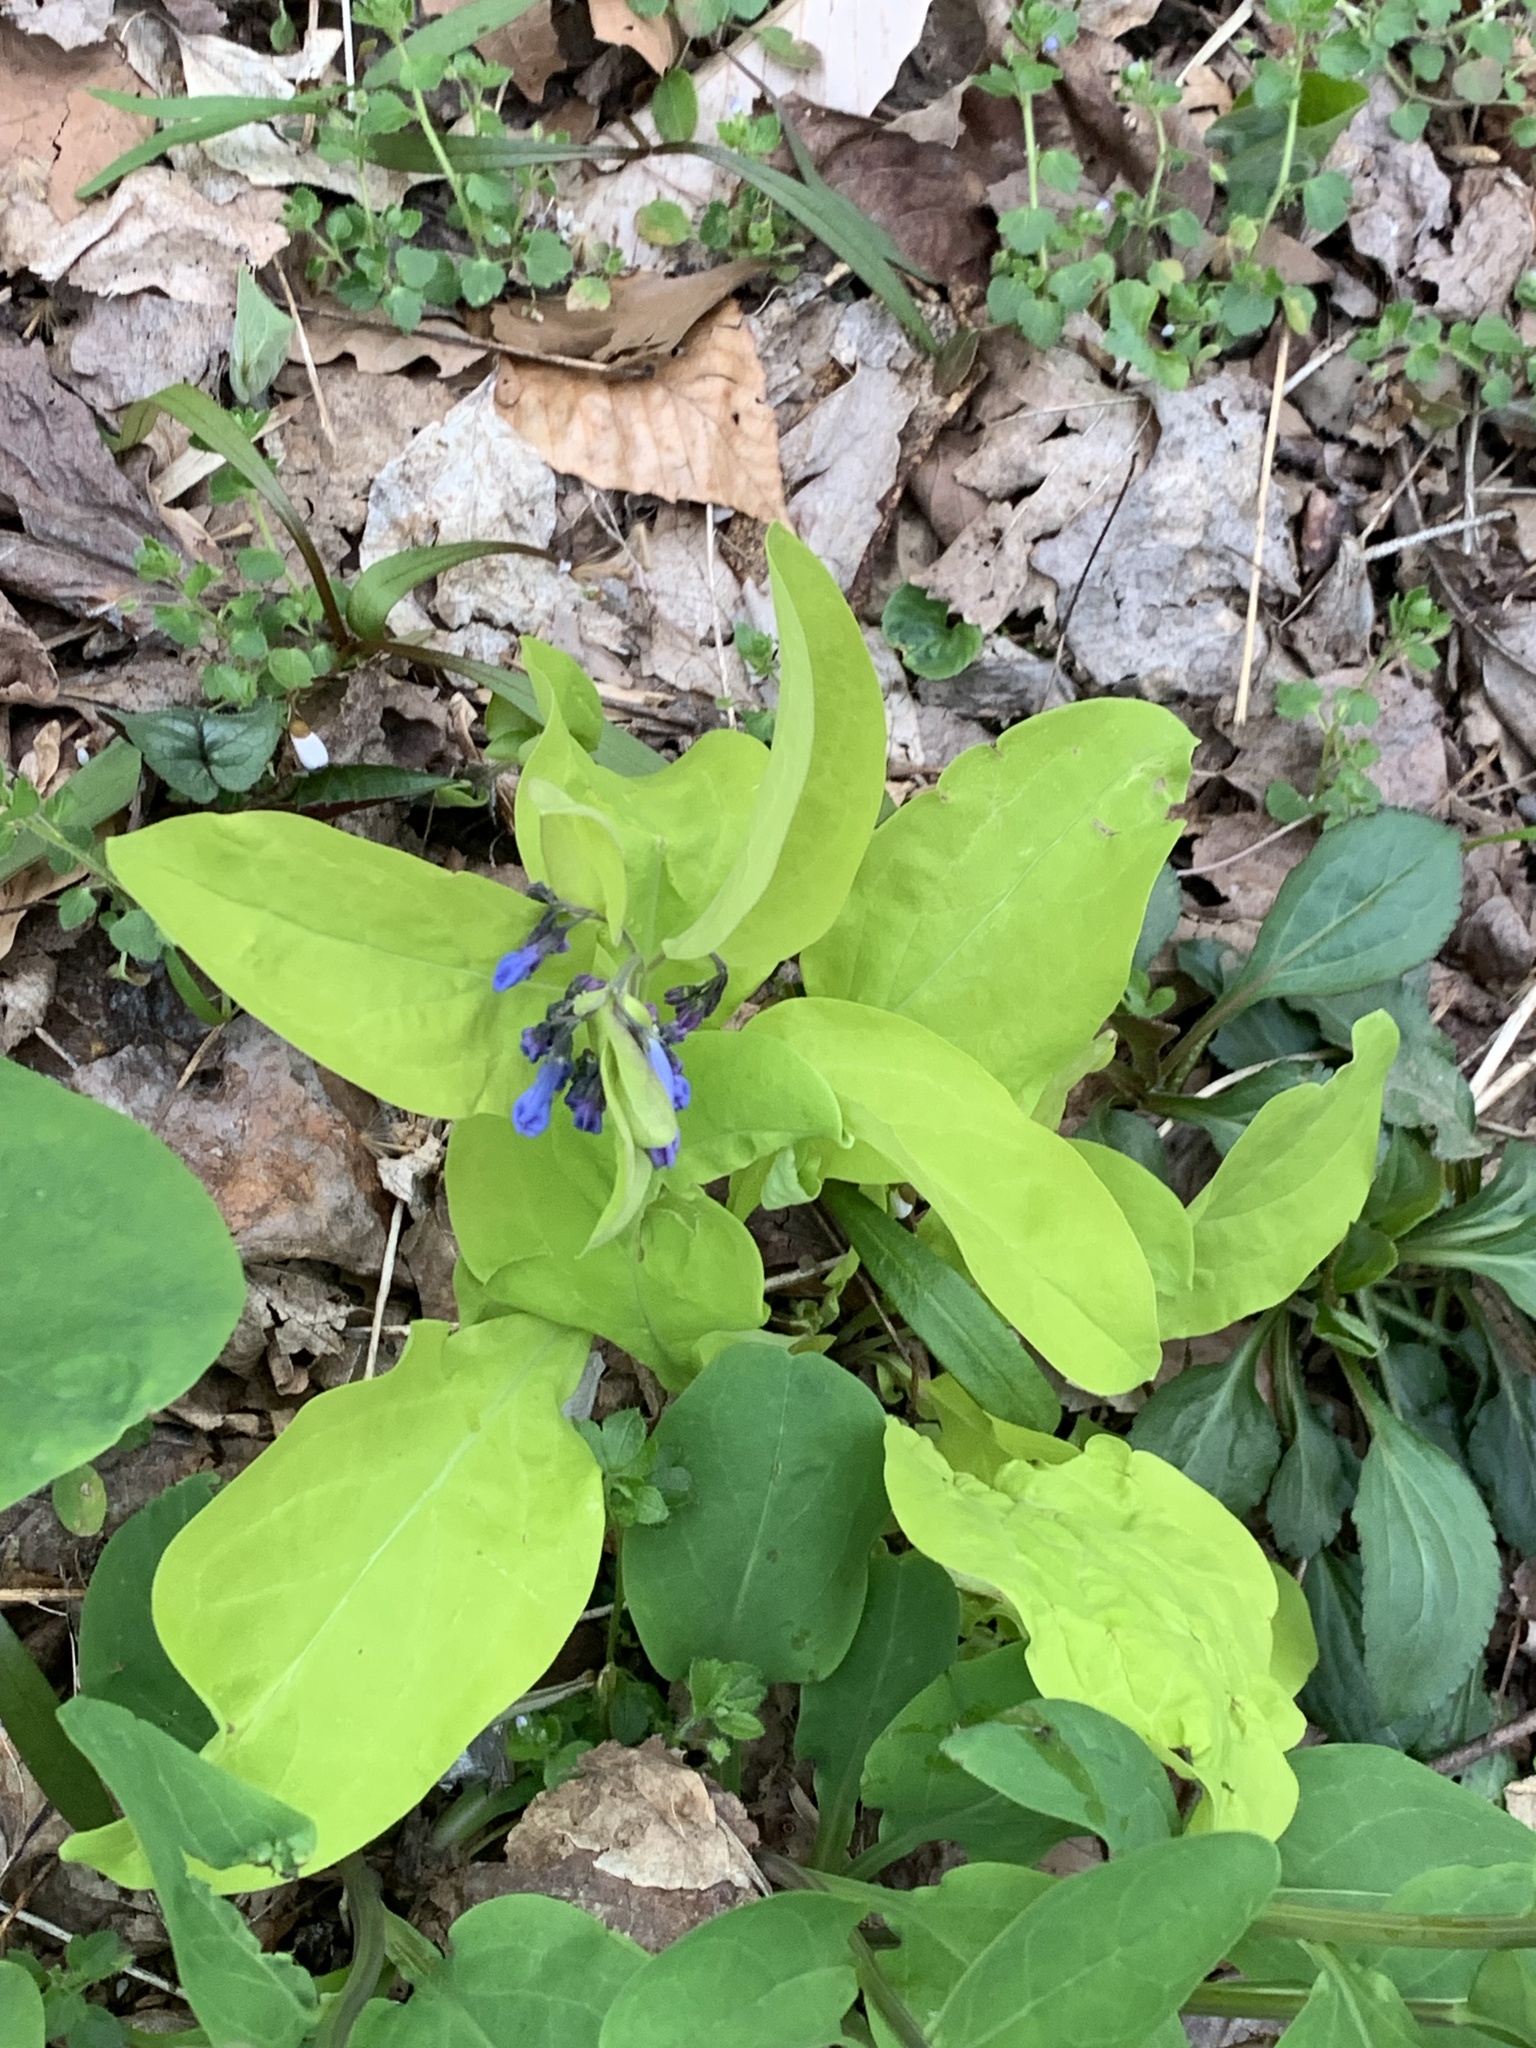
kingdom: Plantae
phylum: Tracheophyta
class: Magnoliopsida
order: Boraginales
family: Boraginaceae
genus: Mertensia
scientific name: Mertensia virginica
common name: Virginia bluebells
